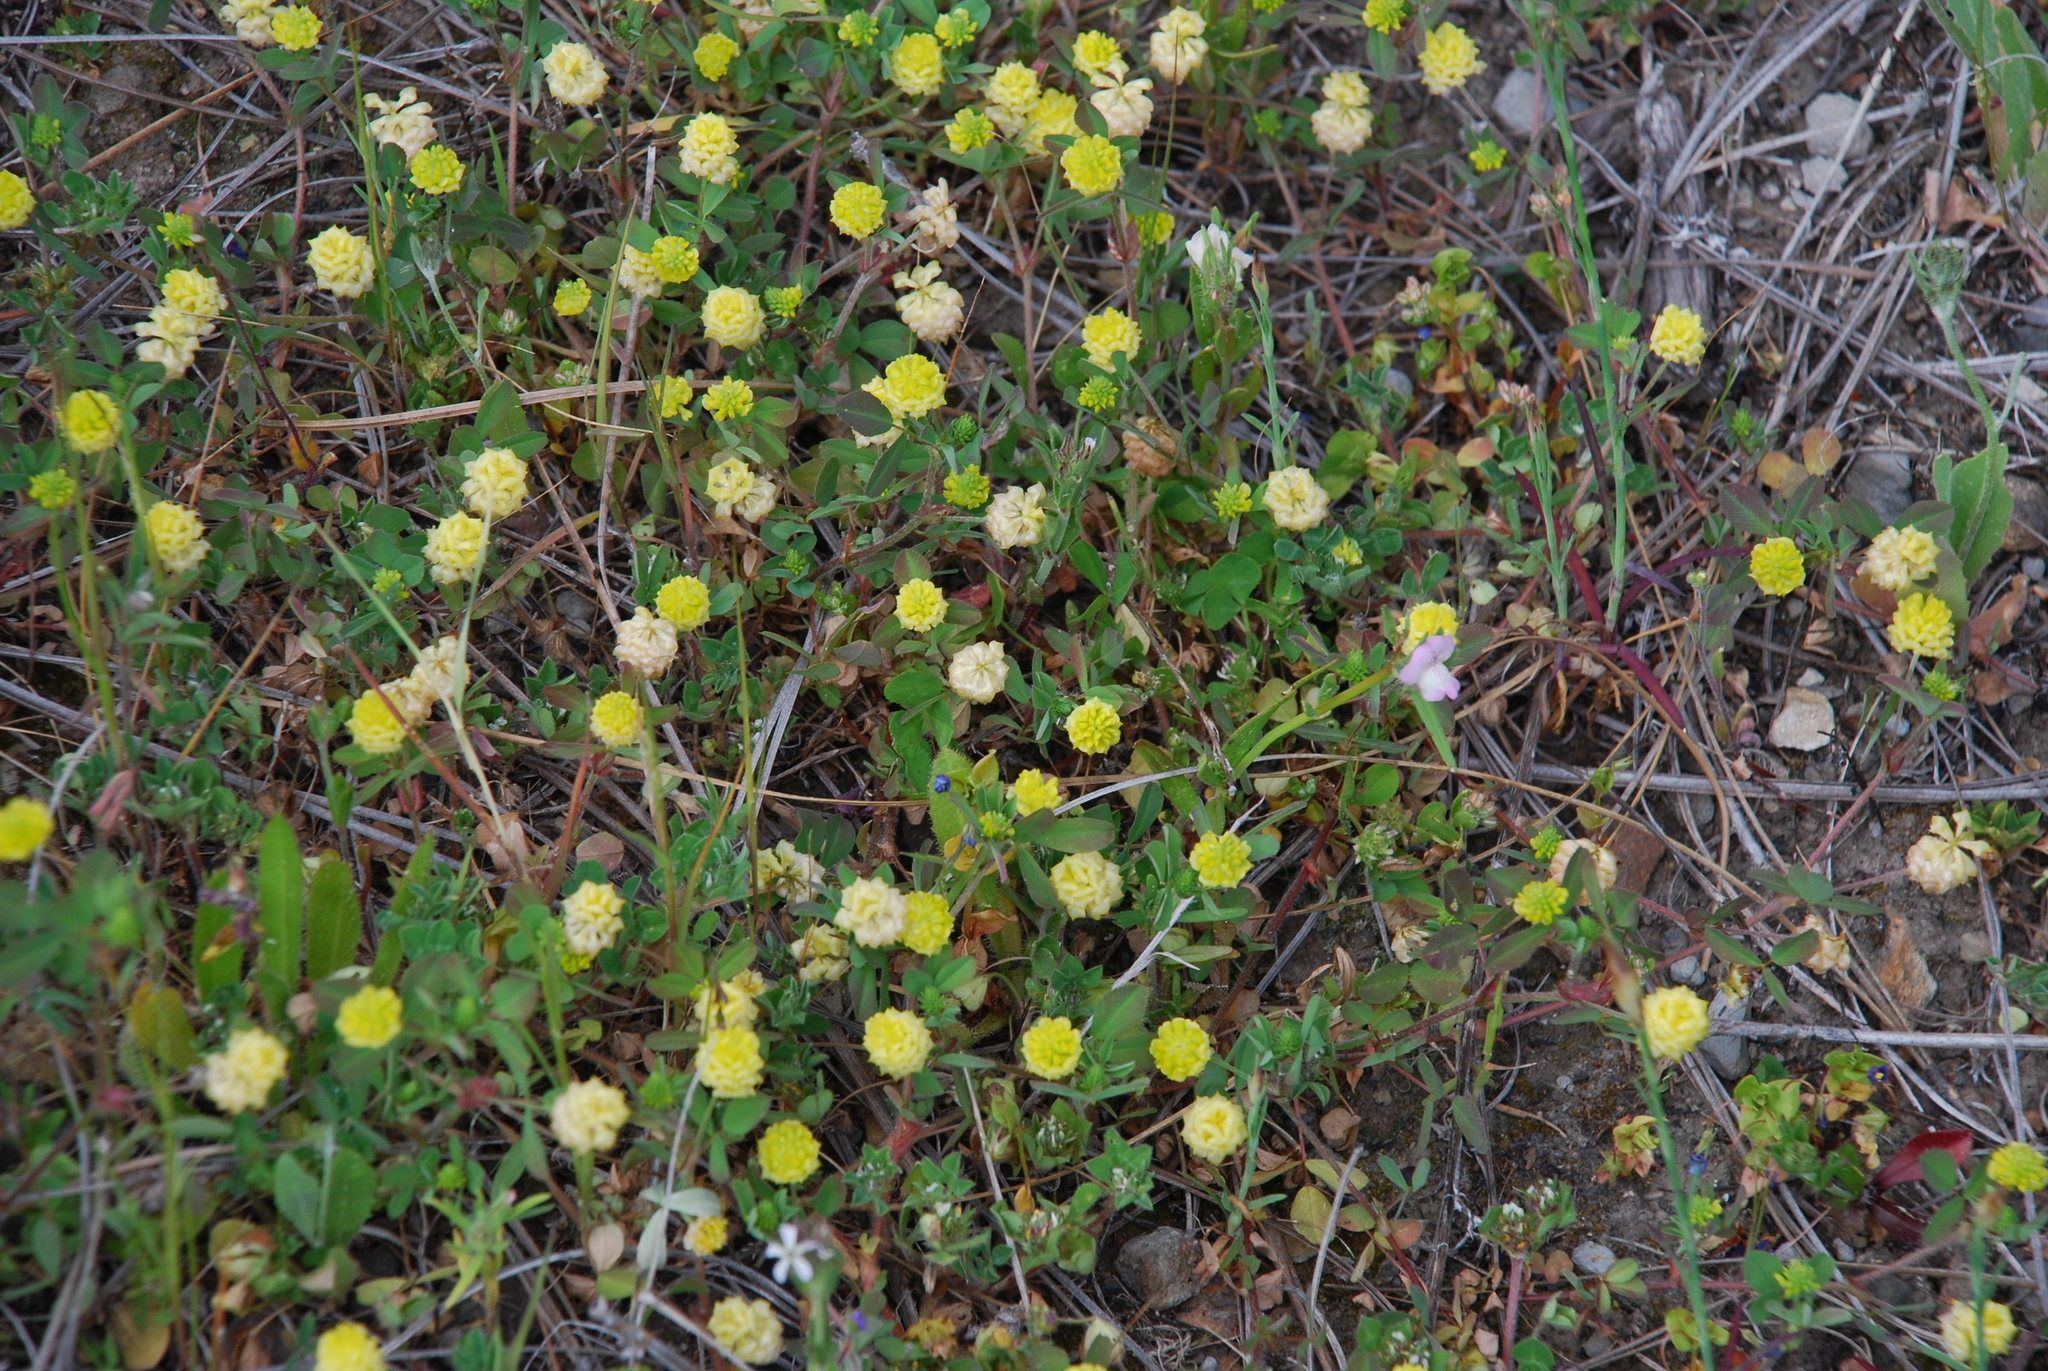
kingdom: Plantae
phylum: Tracheophyta
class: Magnoliopsida
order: Fabales
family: Fabaceae
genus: Trifolium
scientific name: Trifolium campestre
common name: Field clover
